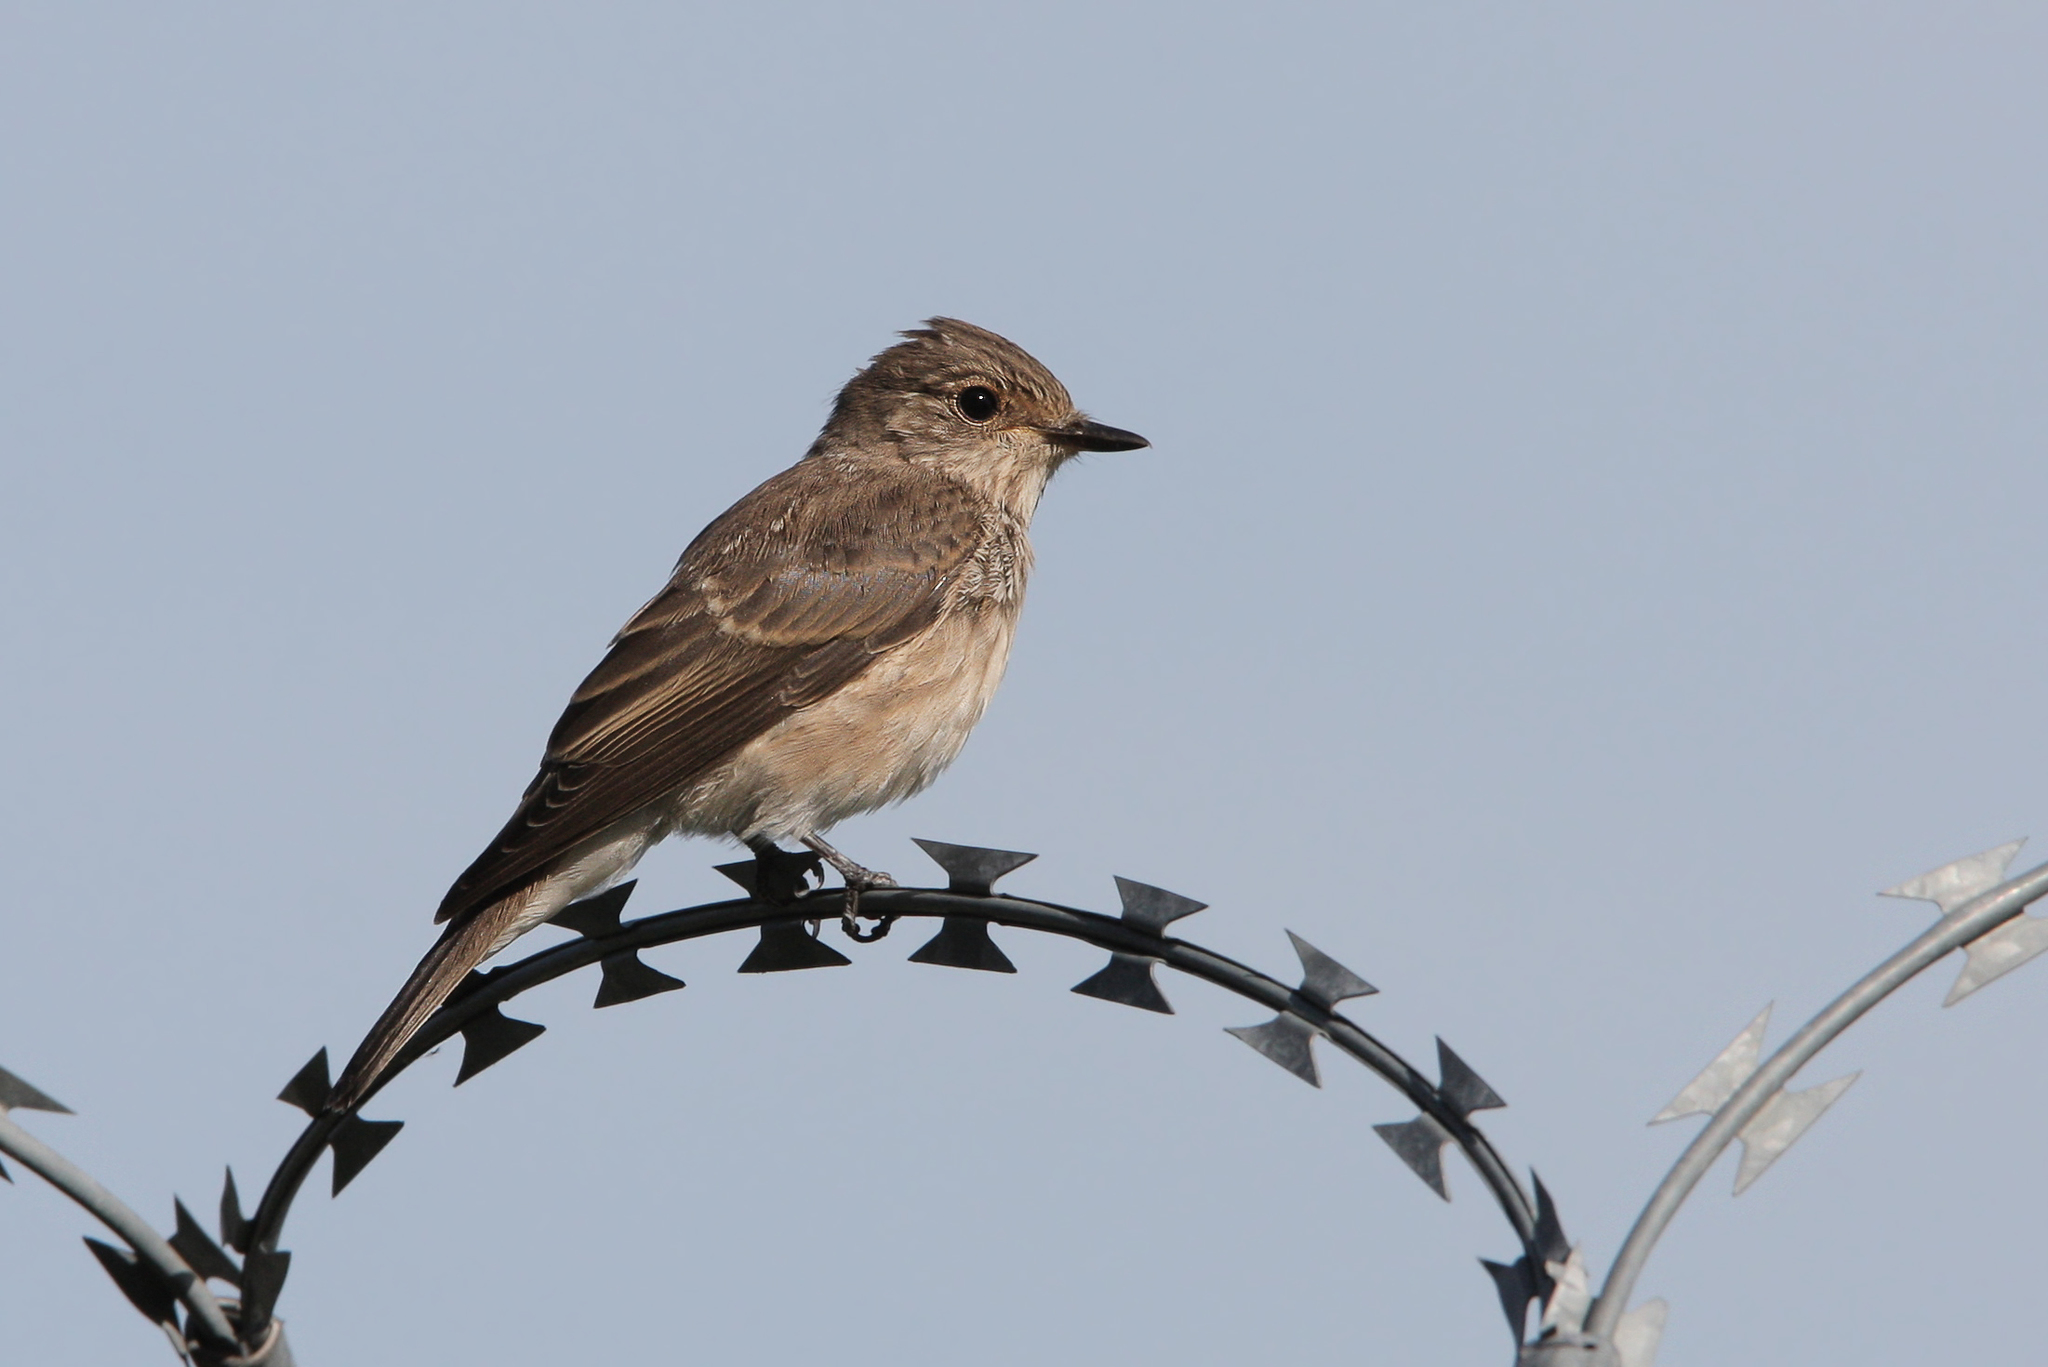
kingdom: Animalia
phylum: Chordata
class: Aves
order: Passeriformes
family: Muscicapidae
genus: Muscicapa
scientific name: Muscicapa striata
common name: Spotted flycatcher
